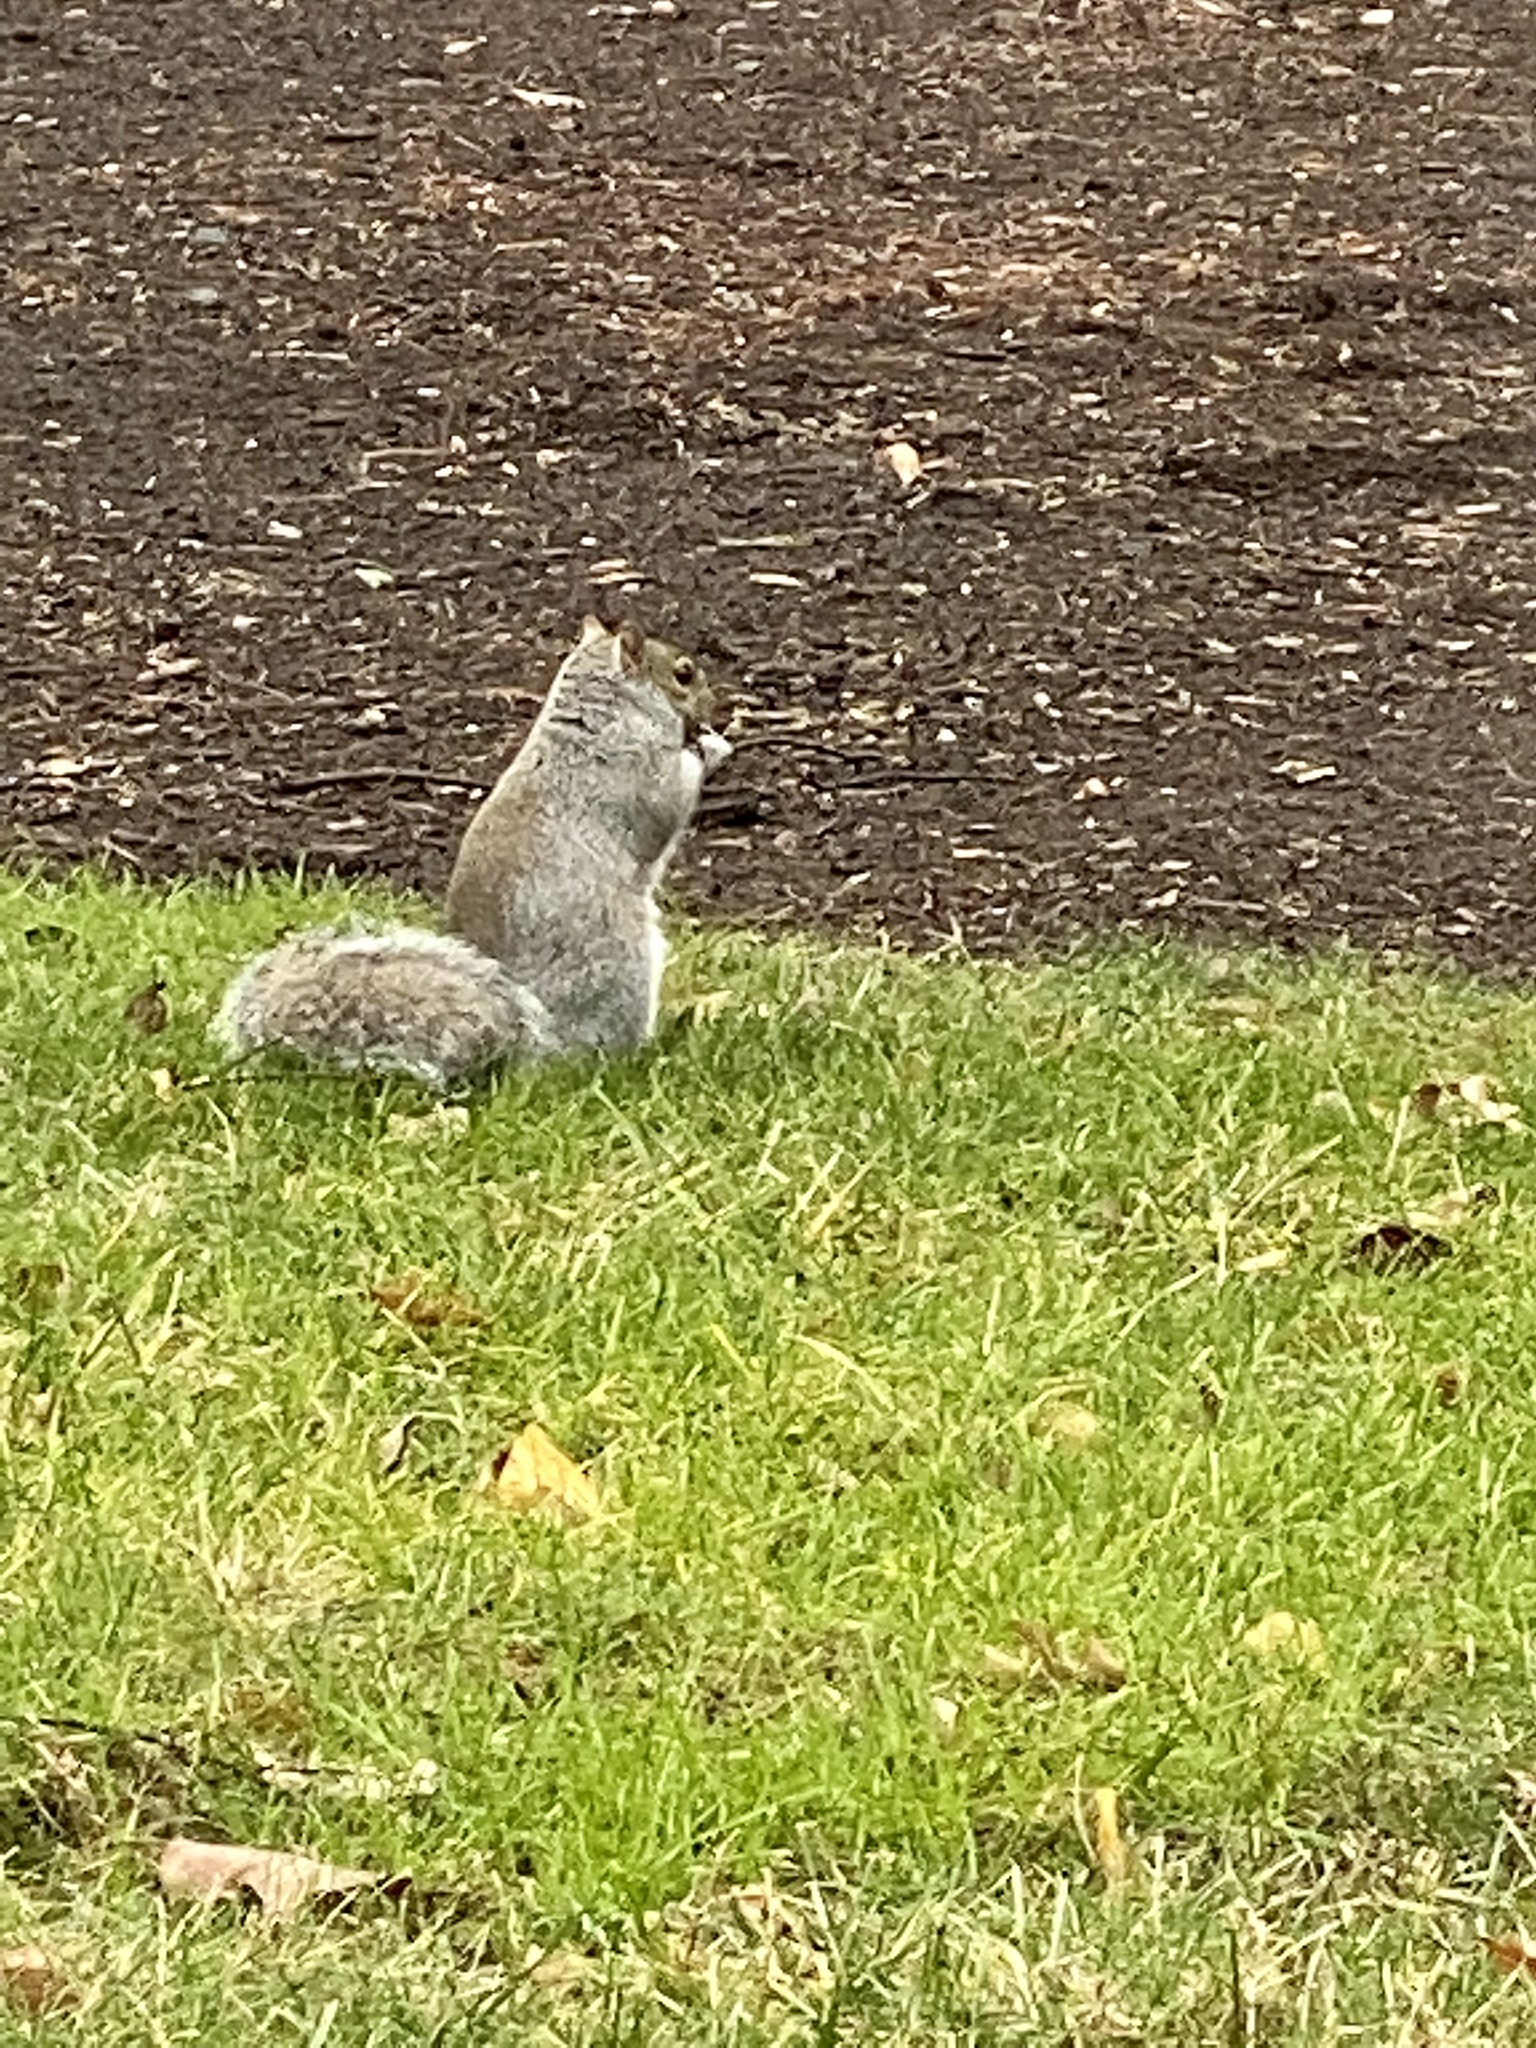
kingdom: Animalia
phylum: Chordata
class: Mammalia
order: Rodentia
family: Sciuridae
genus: Sciurus
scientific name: Sciurus carolinensis
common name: Eastern gray squirrel
